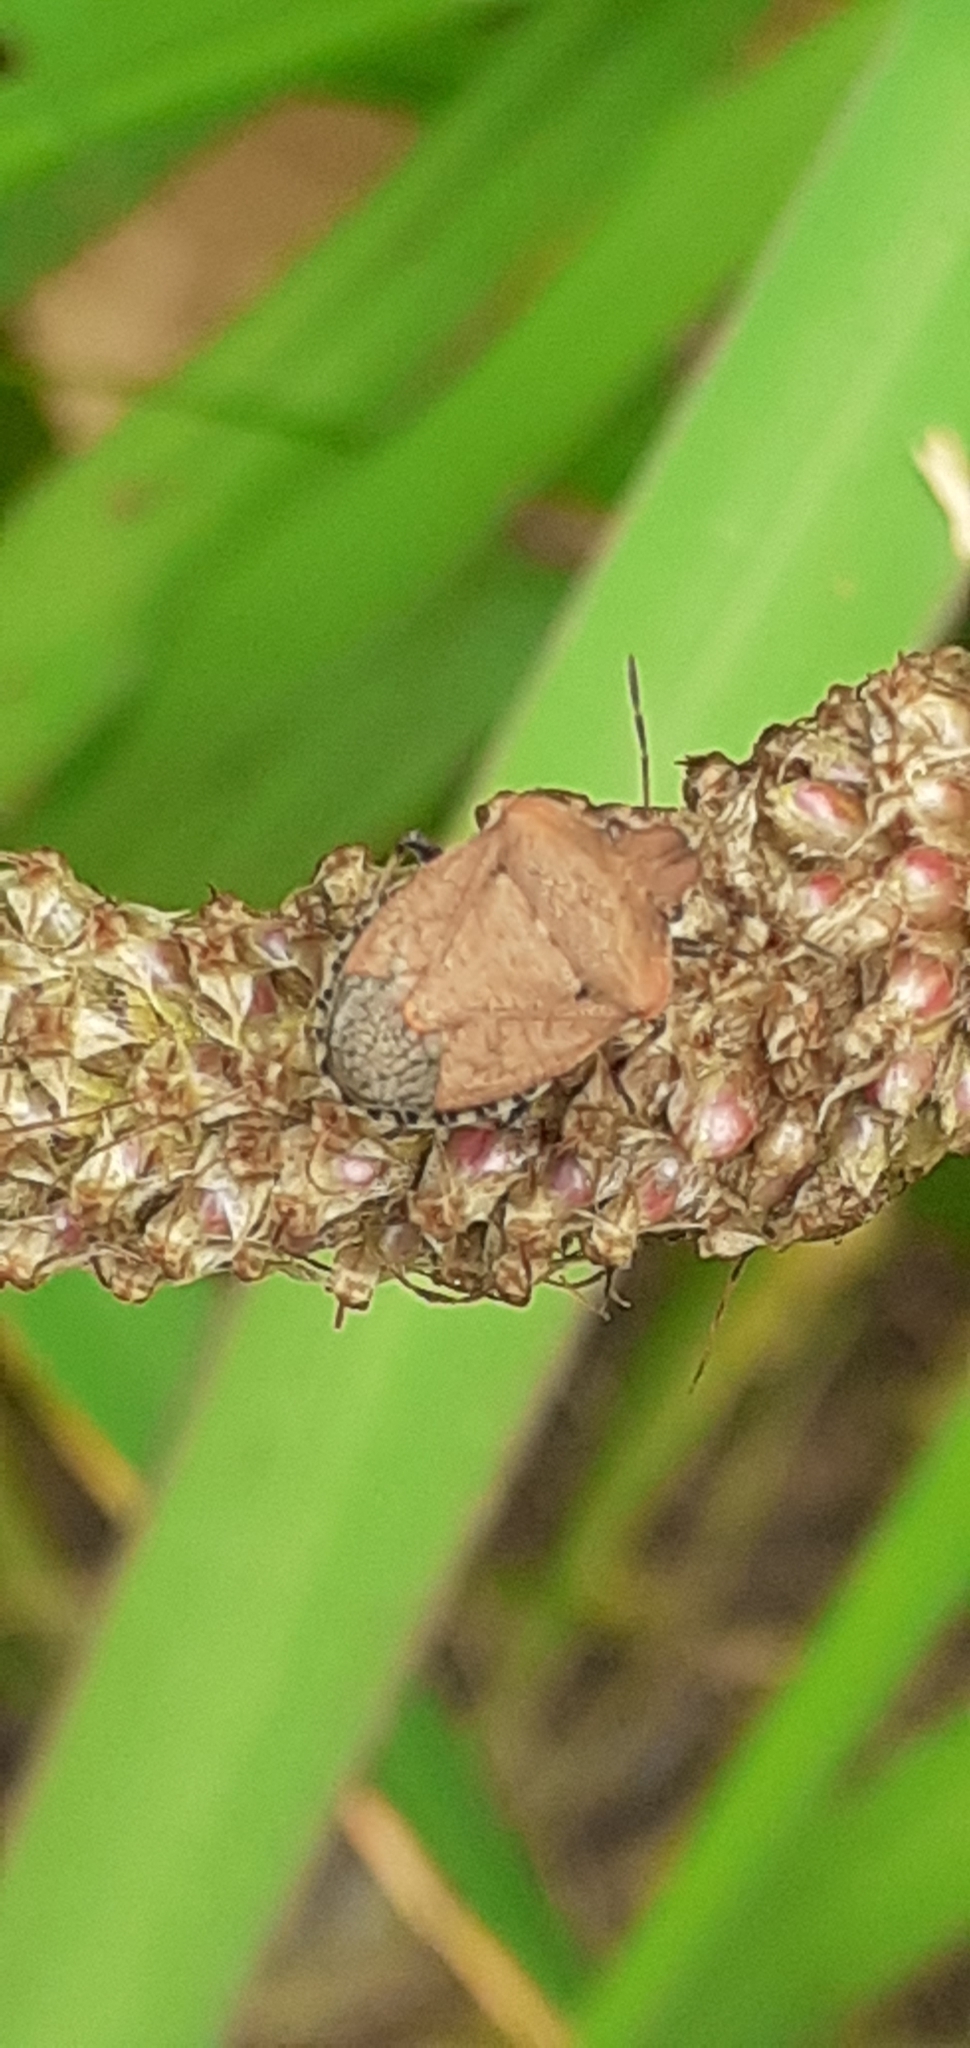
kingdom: Animalia
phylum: Arthropoda
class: Insecta
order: Hemiptera
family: Pentatomidae
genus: Dictyotus
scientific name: Dictyotus caenosus
